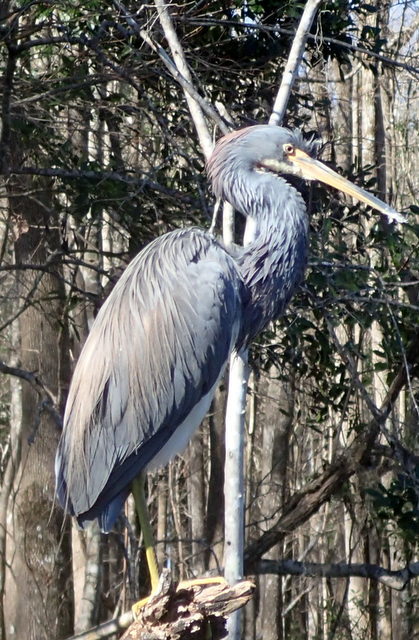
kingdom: Animalia
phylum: Chordata
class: Aves
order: Pelecaniformes
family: Ardeidae
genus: Egretta
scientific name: Egretta tricolor
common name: Tricolored heron
